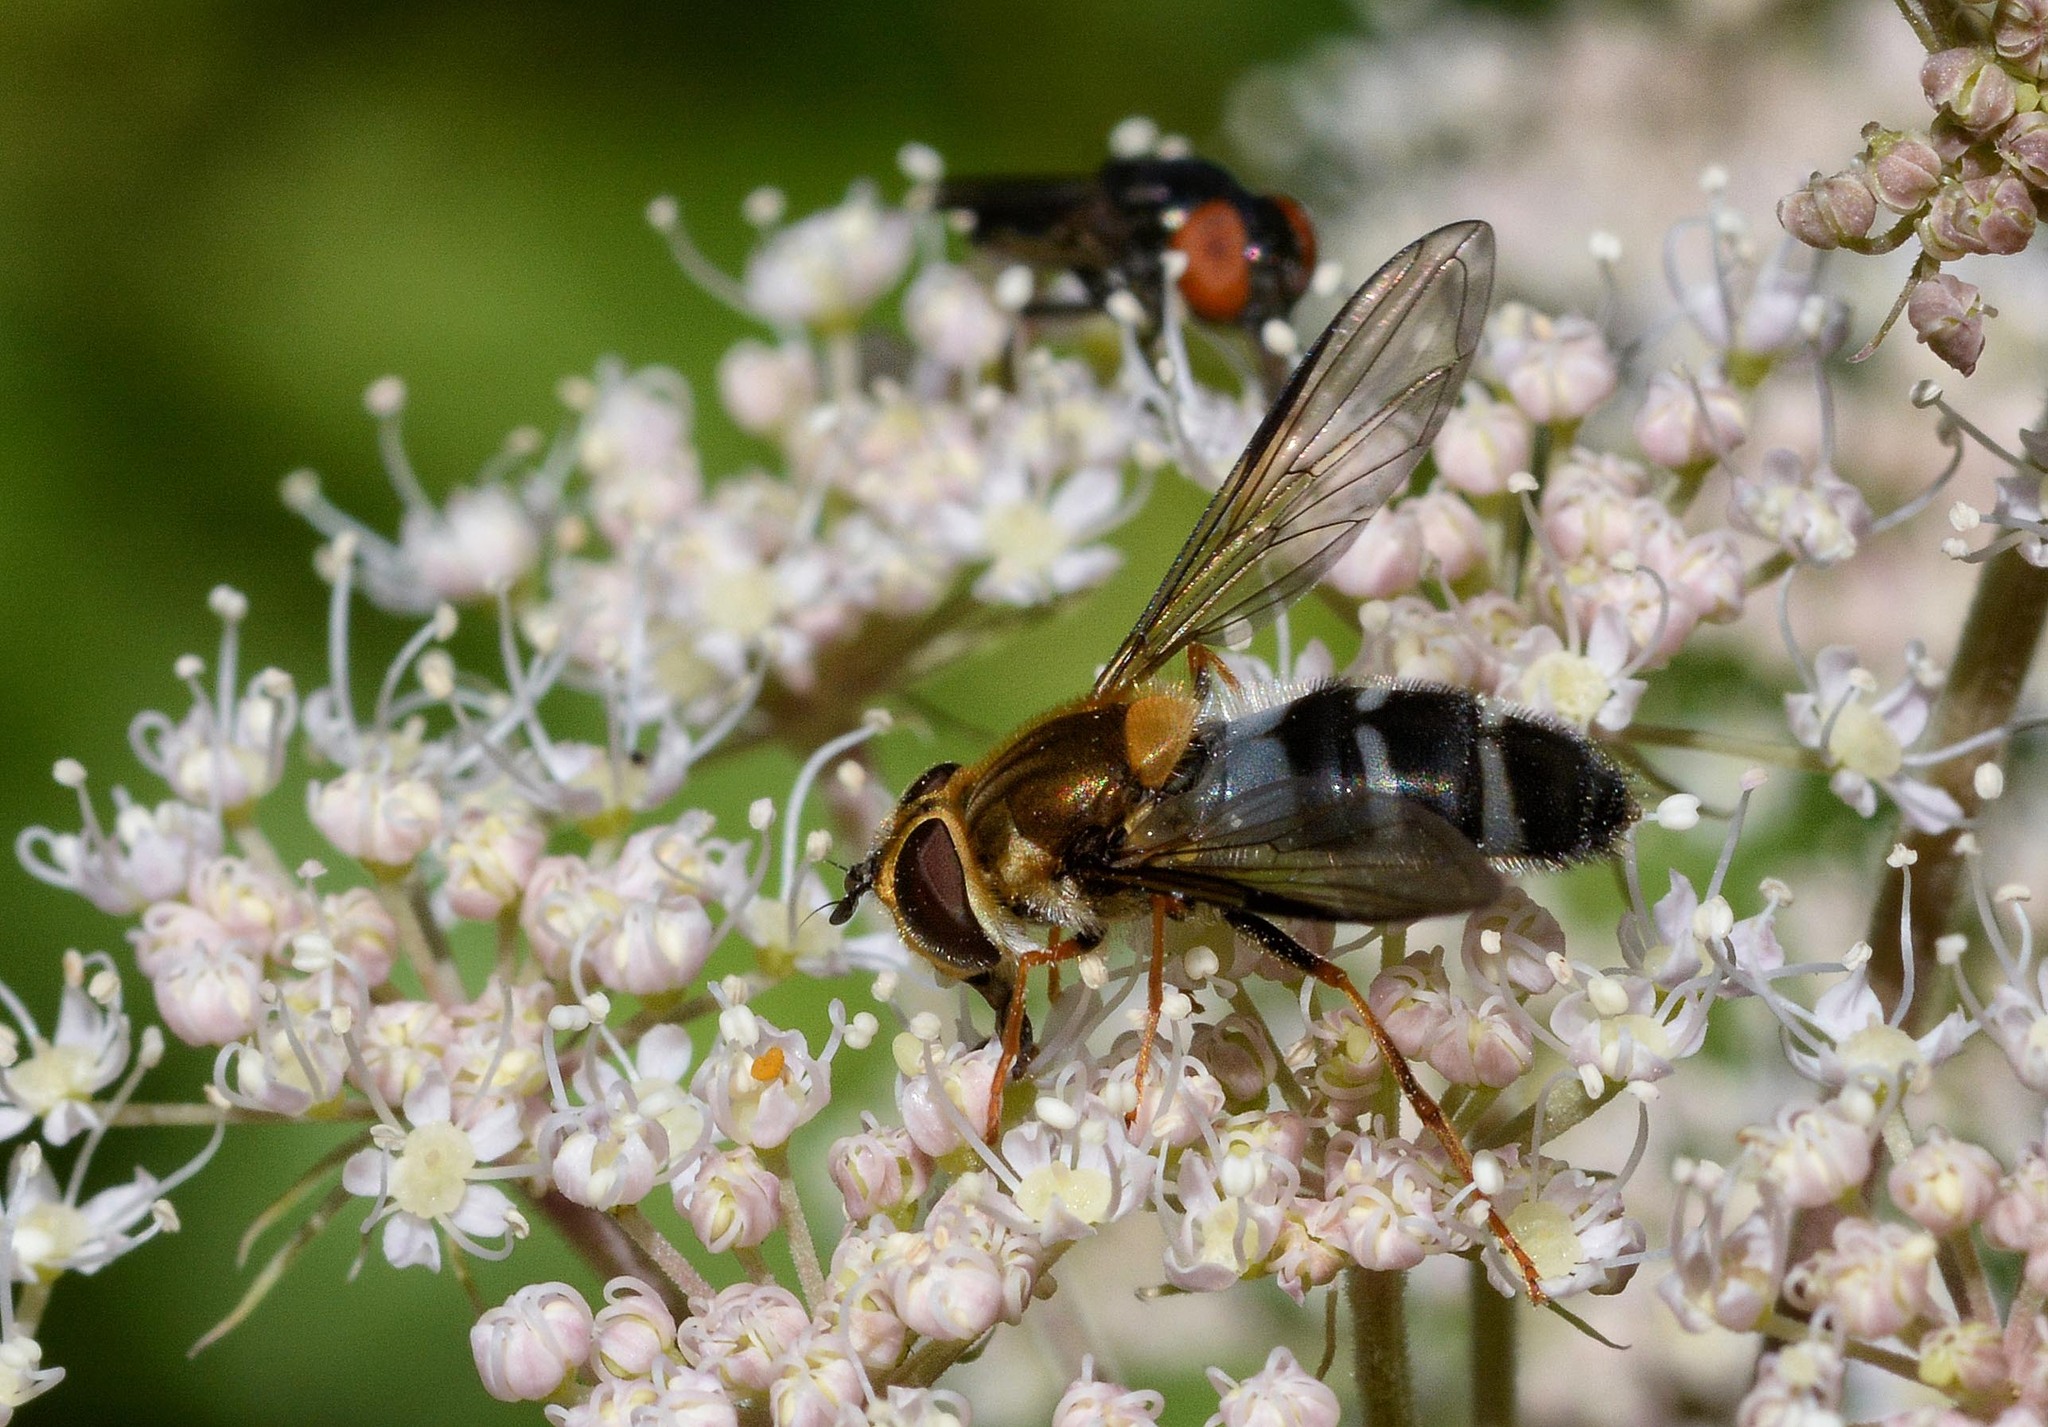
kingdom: Animalia
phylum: Arthropoda
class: Insecta
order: Diptera
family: Syrphidae
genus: Leucozona
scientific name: Leucozona glaucia
